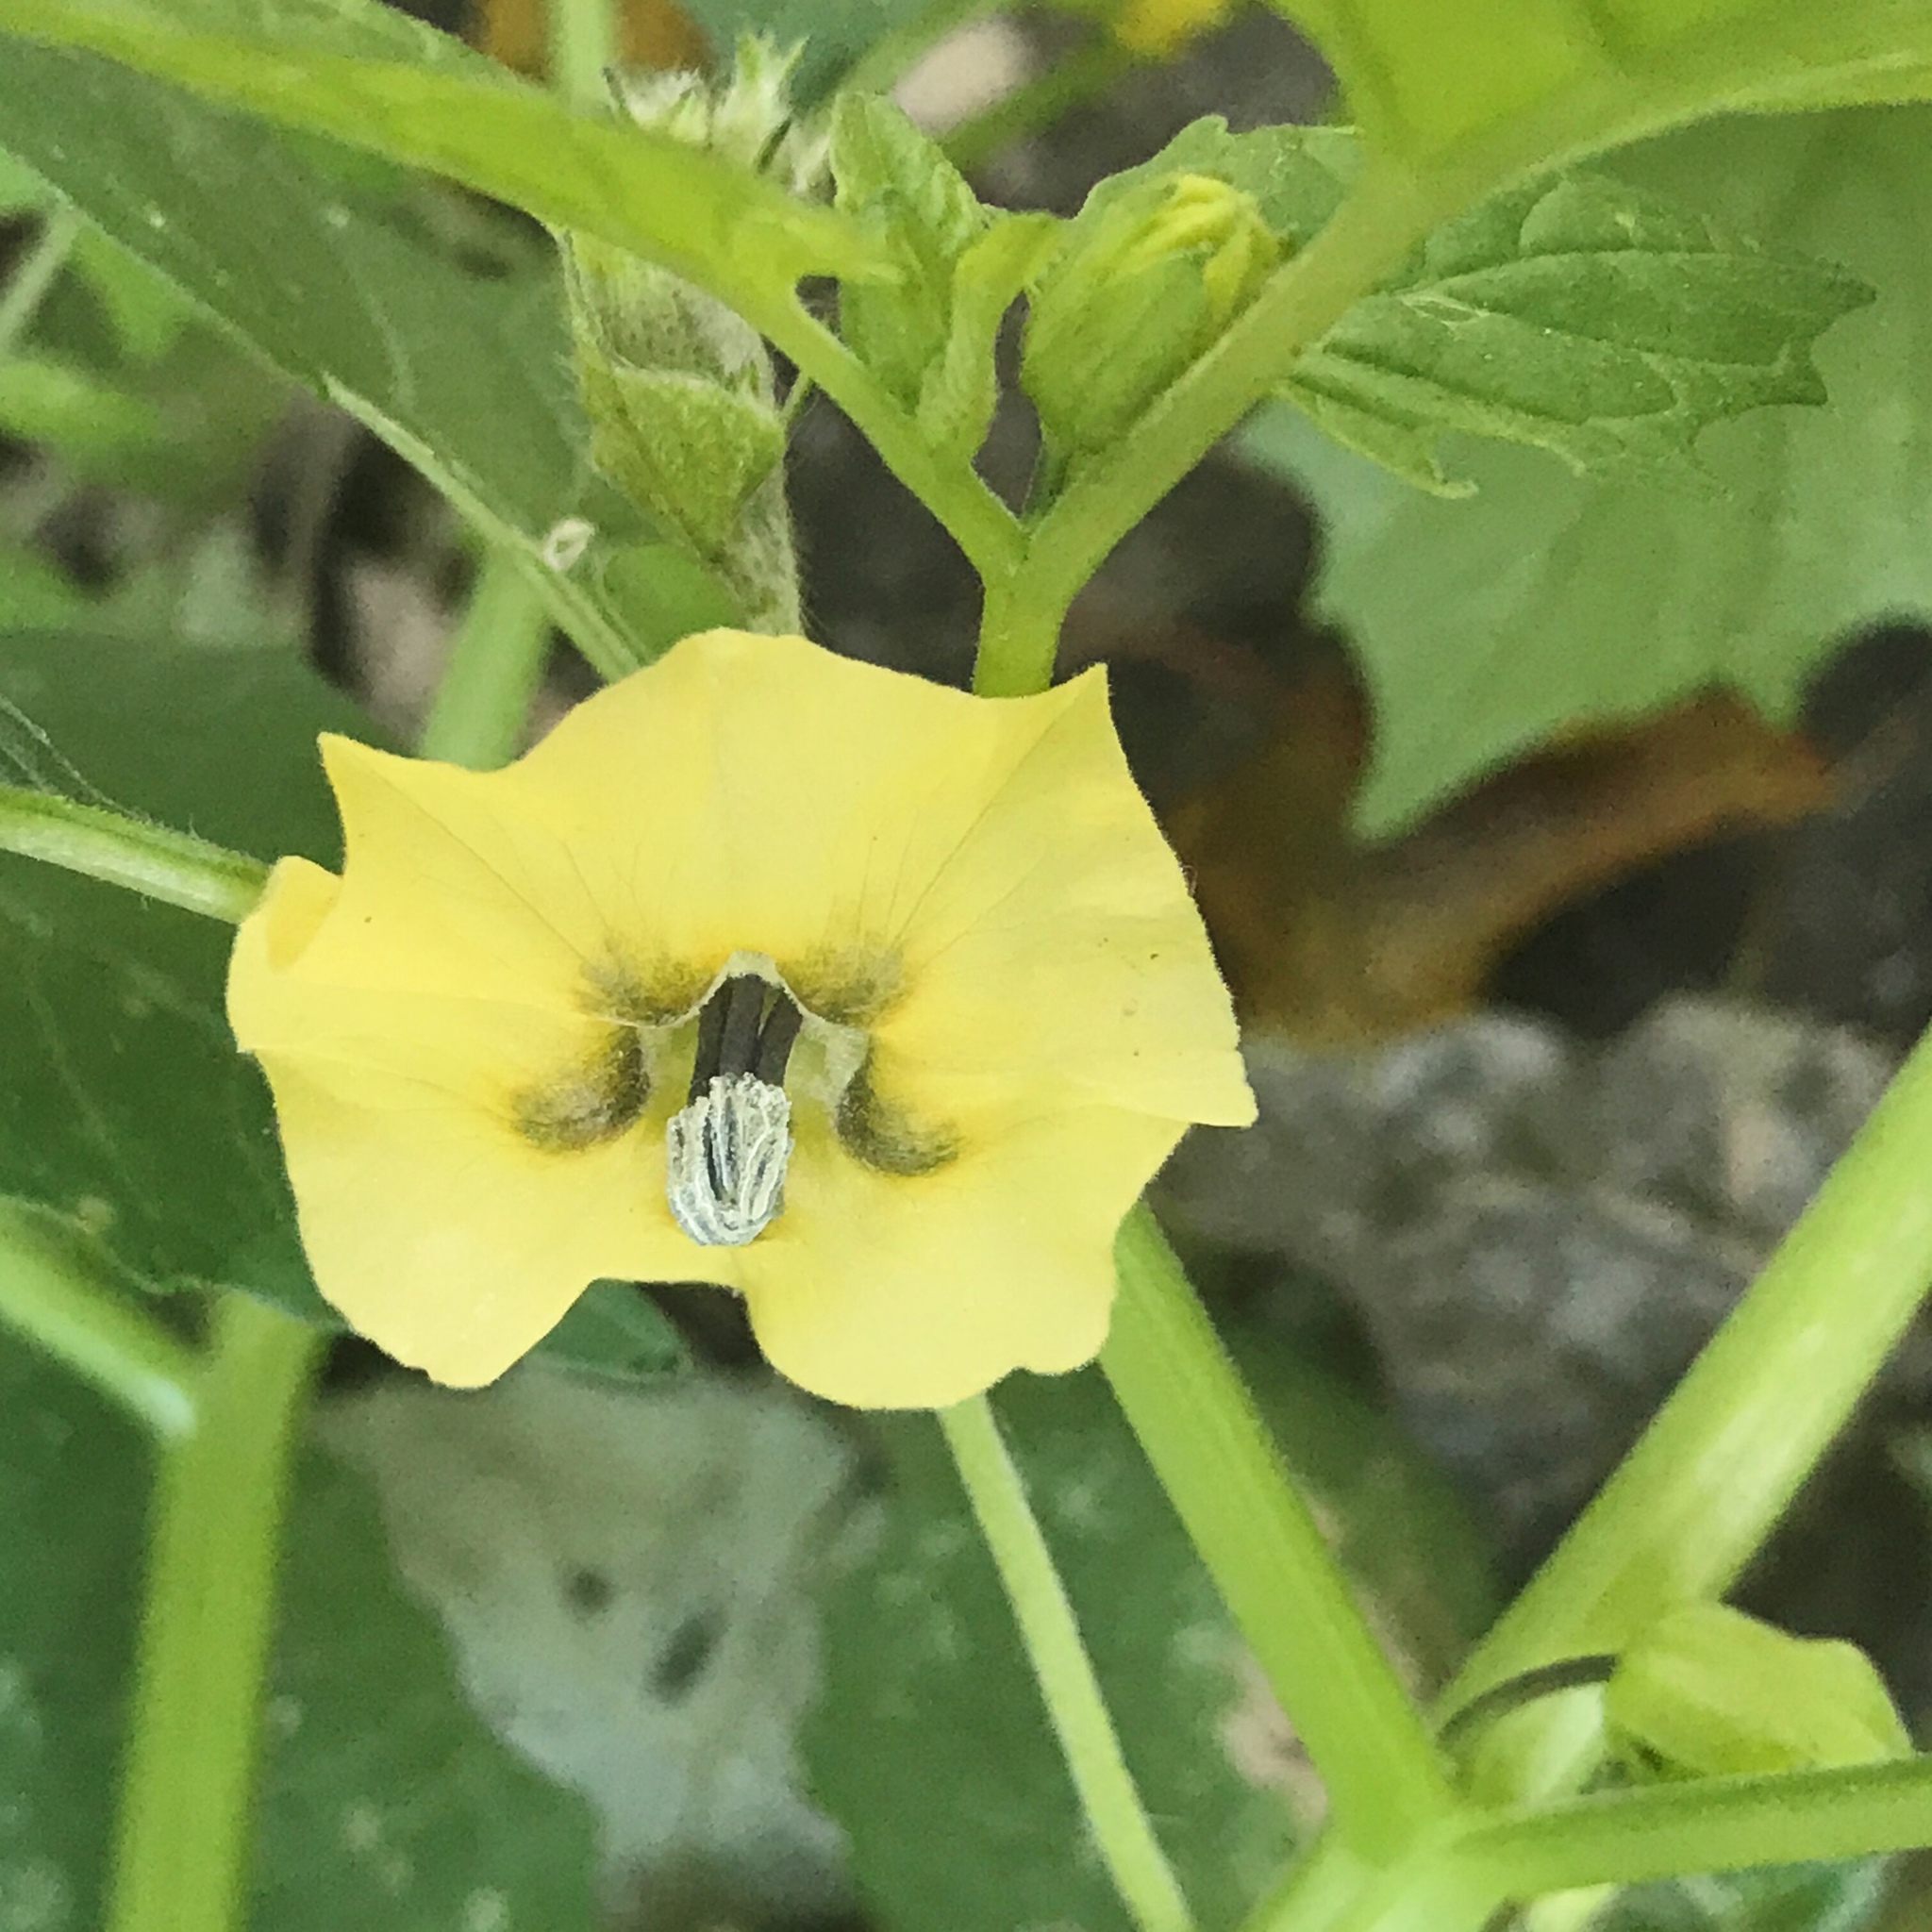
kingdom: Plantae
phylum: Tracheophyta
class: Magnoliopsida
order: Solanales
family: Solanaceae
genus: Physalis
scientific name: Physalis philadelphica
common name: Husk-tomato
